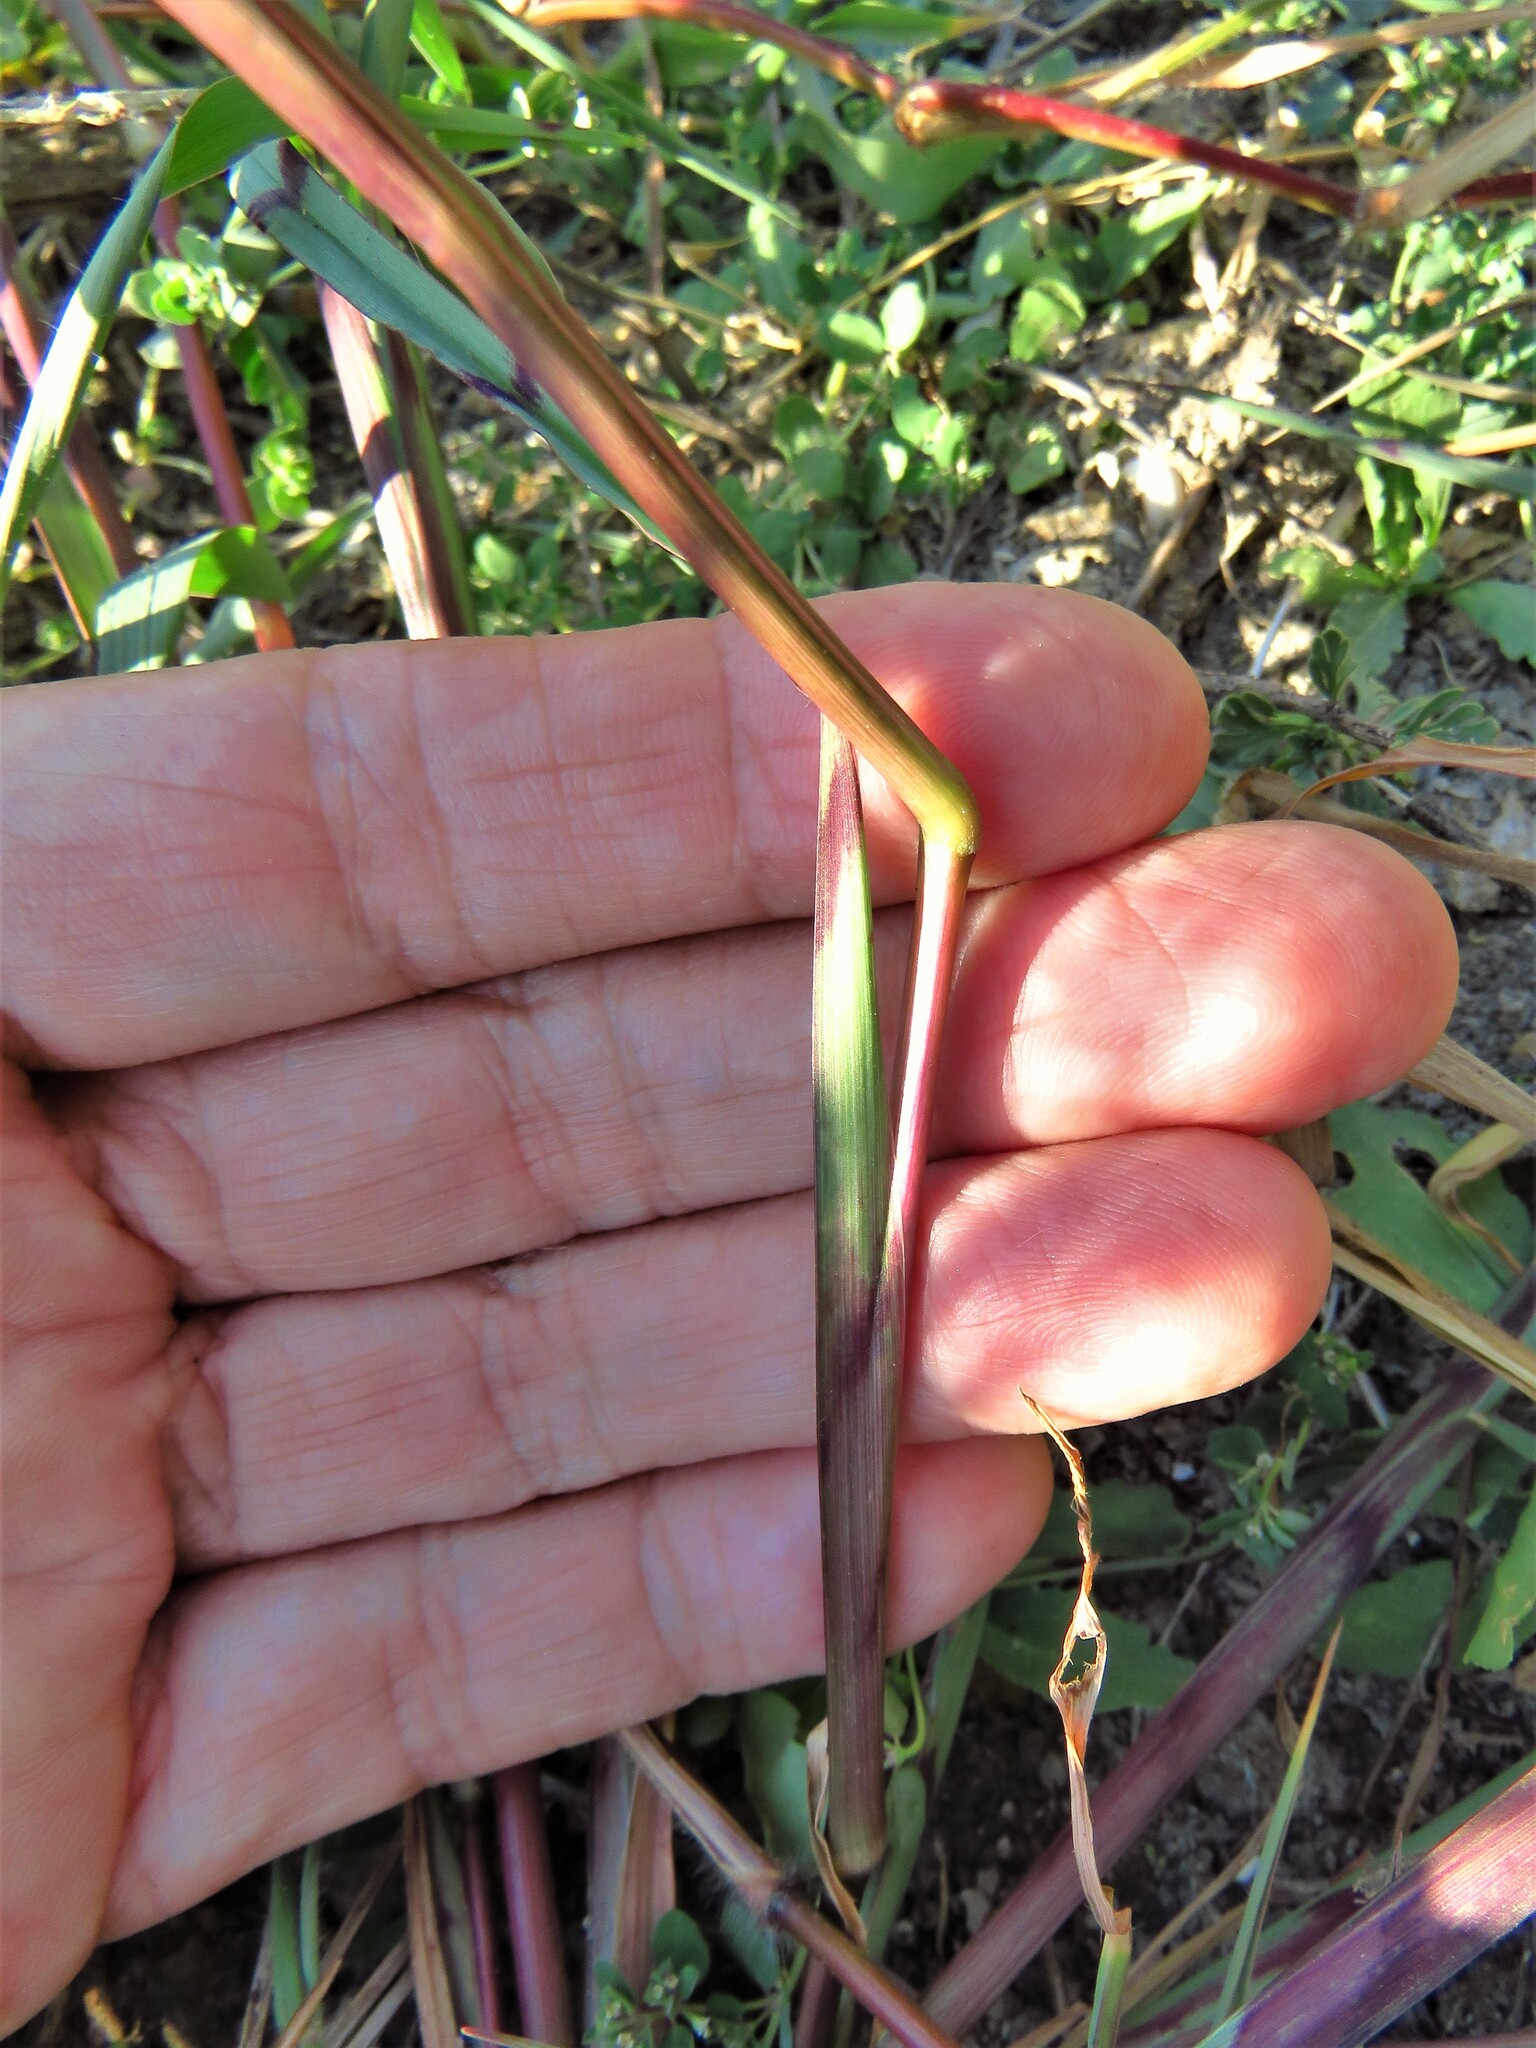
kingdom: Plantae
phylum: Tracheophyta
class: Liliopsida
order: Poales
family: Poaceae
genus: Echinochloa
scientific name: Echinochloa colonum
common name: Jungle rice
